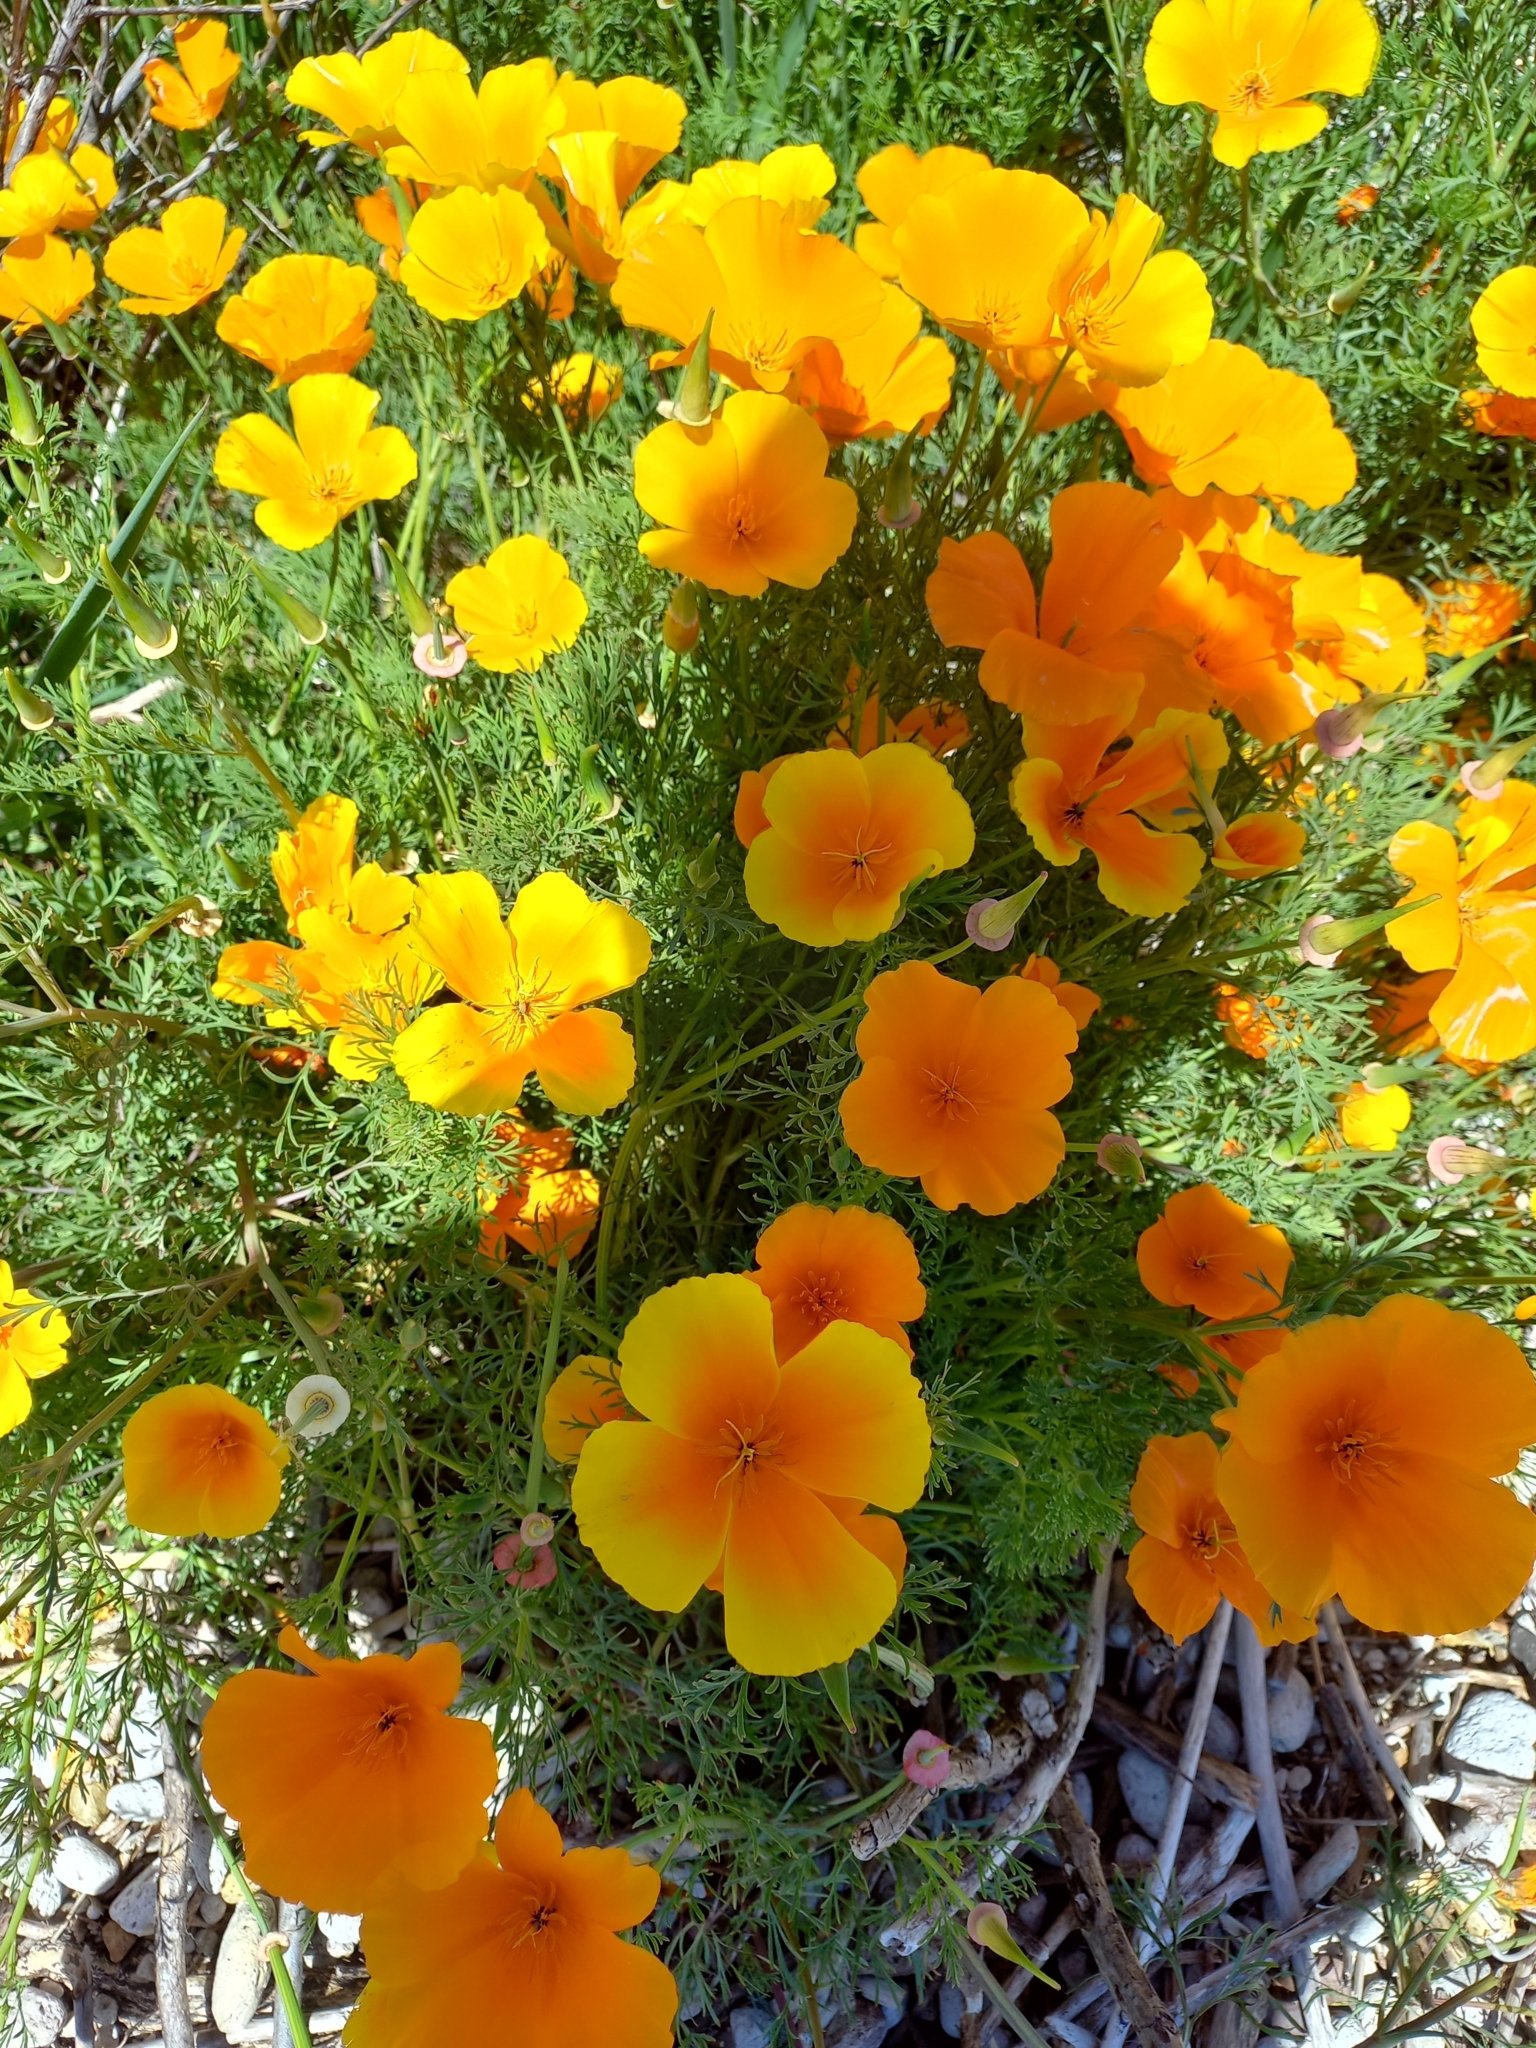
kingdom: Plantae
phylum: Tracheophyta
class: Magnoliopsida
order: Ranunculales
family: Papaveraceae
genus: Eschscholzia
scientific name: Eschscholzia californica
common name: California poppy
